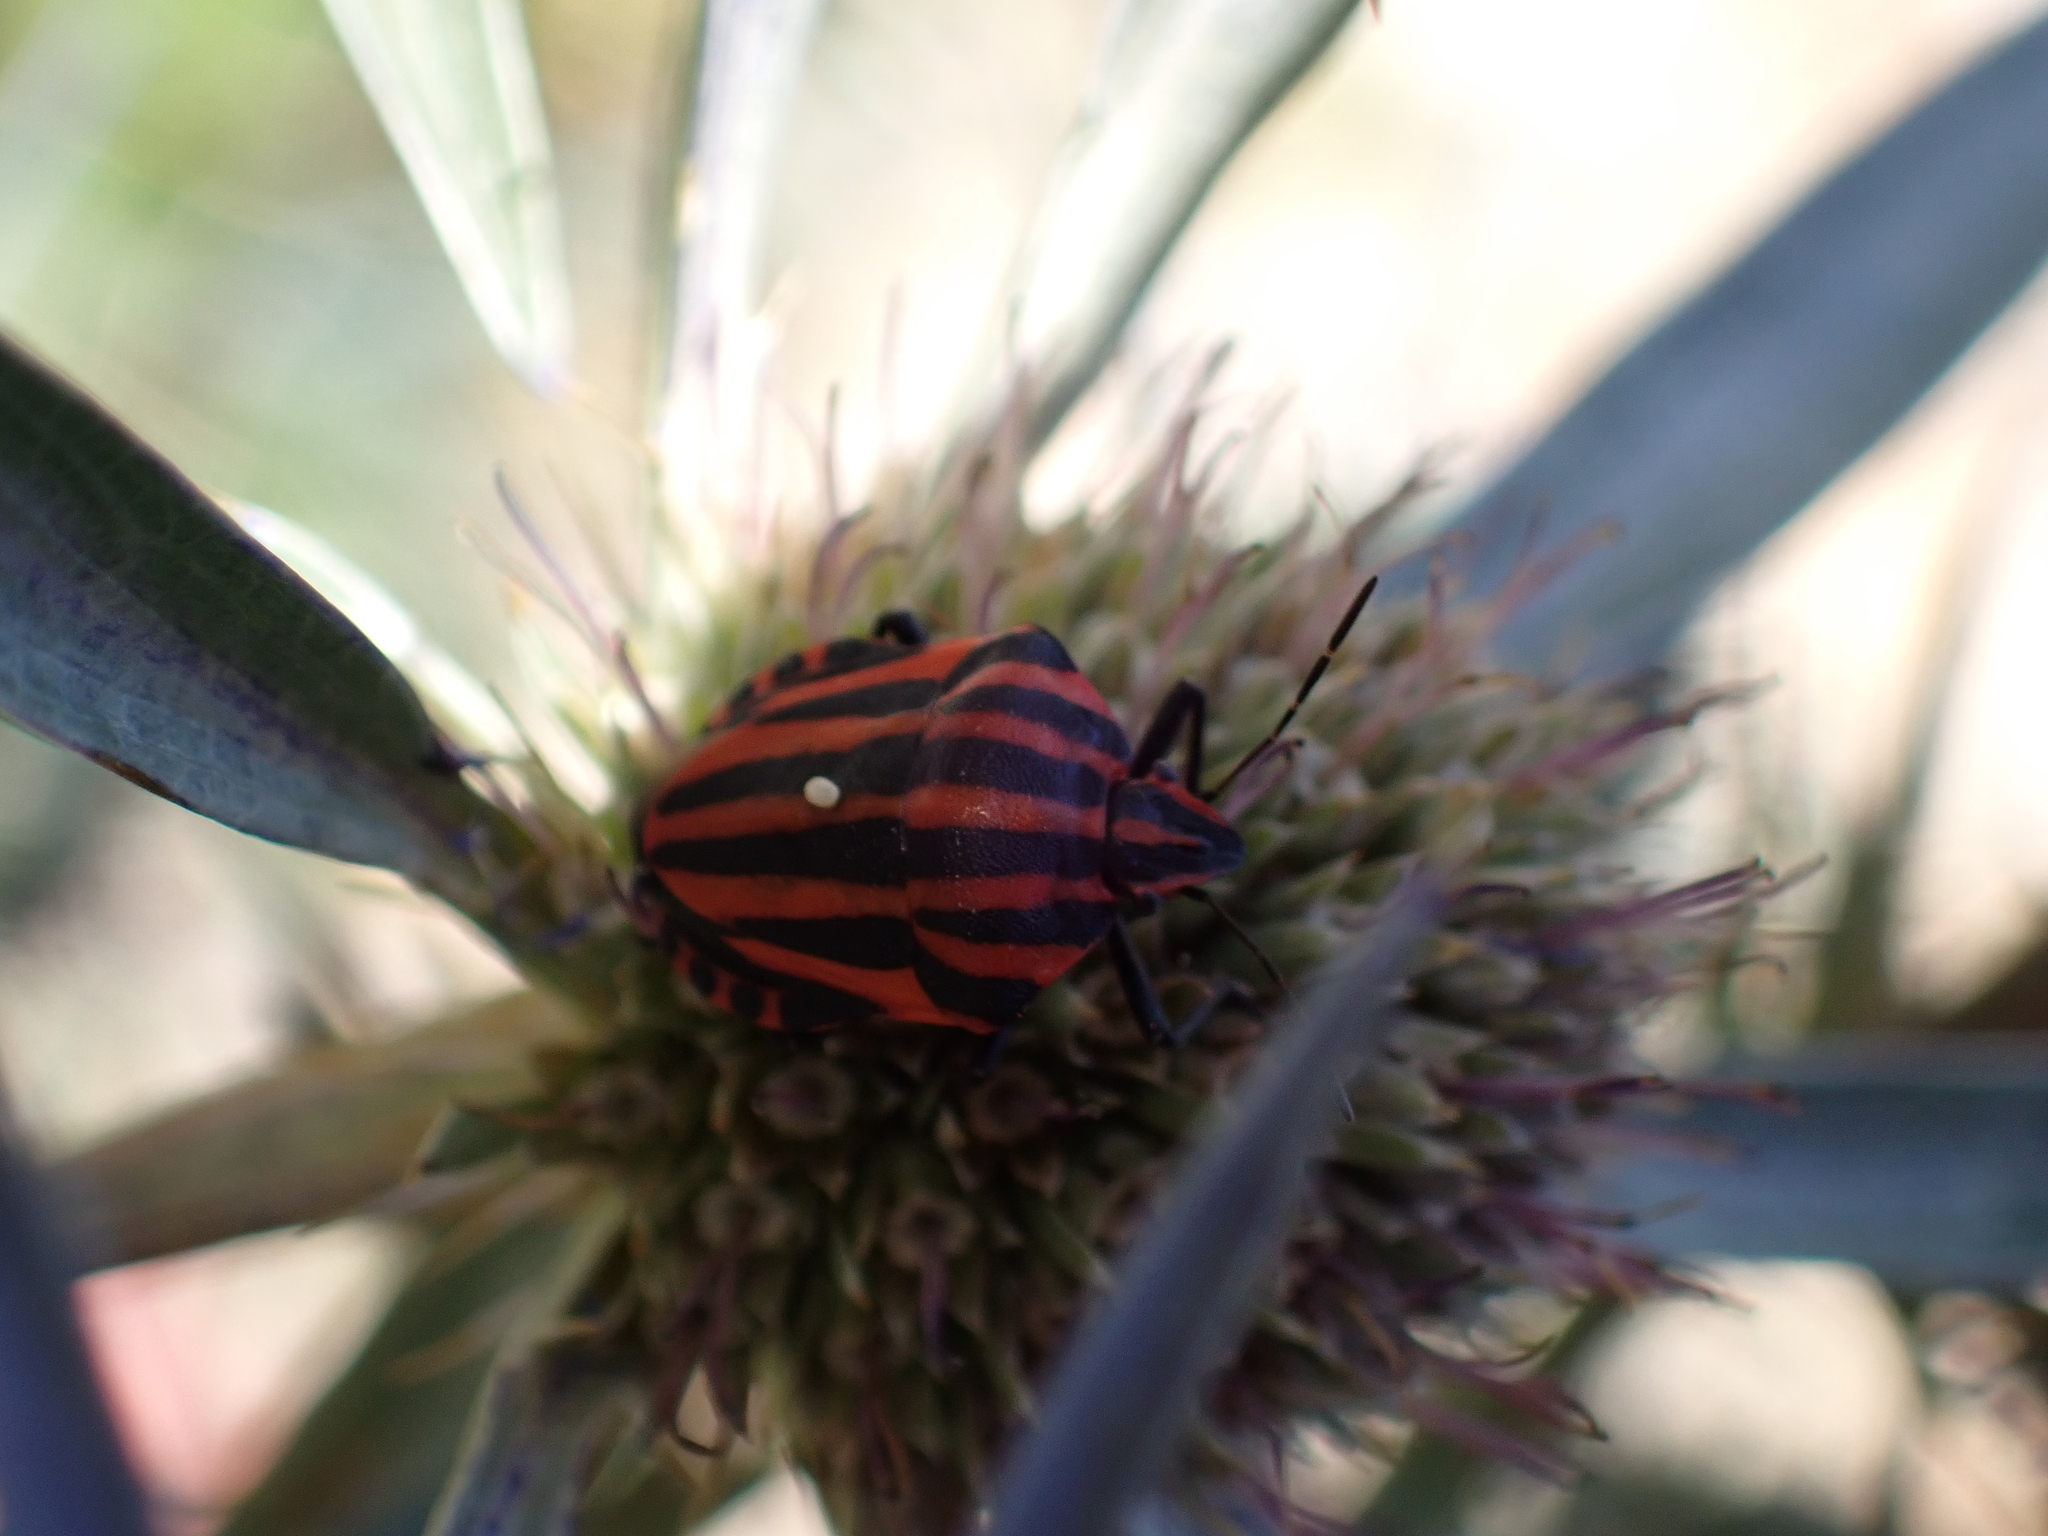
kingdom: Animalia
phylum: Arthropoda
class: Insecta
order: Hemiptera
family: Pentatomidae
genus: Graphosoma
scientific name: Graphosoma italicum
